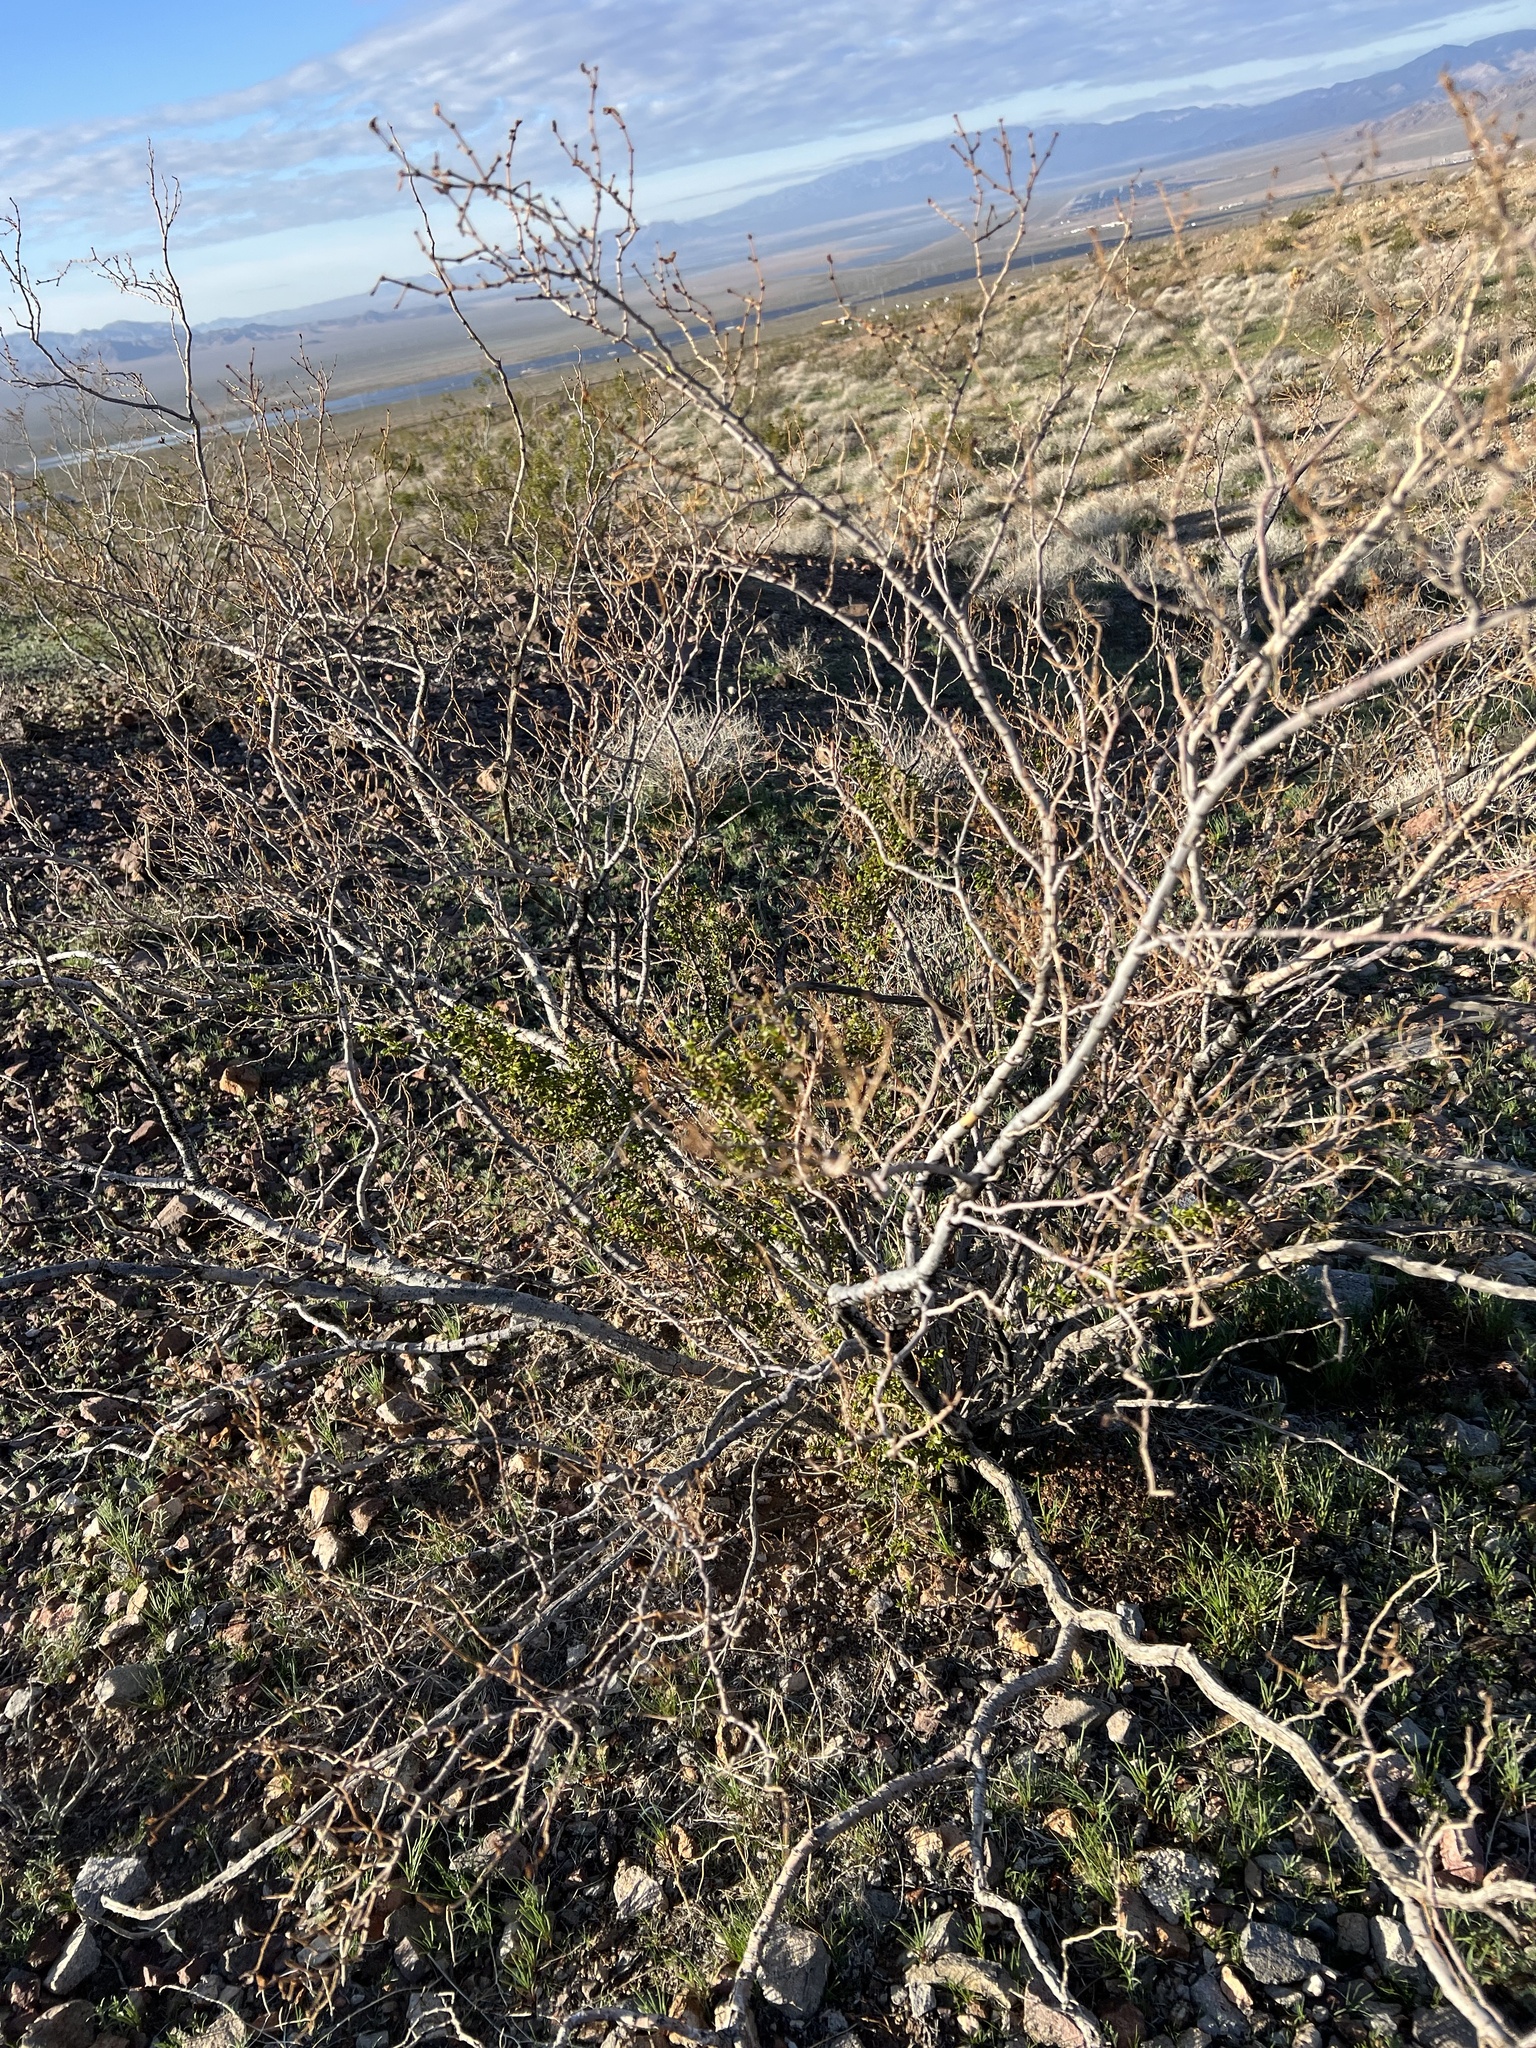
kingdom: Plantae
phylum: Tracheophyta
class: Magnoliopsida
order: Zygophyllales
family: Zygophyllaceae
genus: Larrea
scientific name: Larrea tridentata
